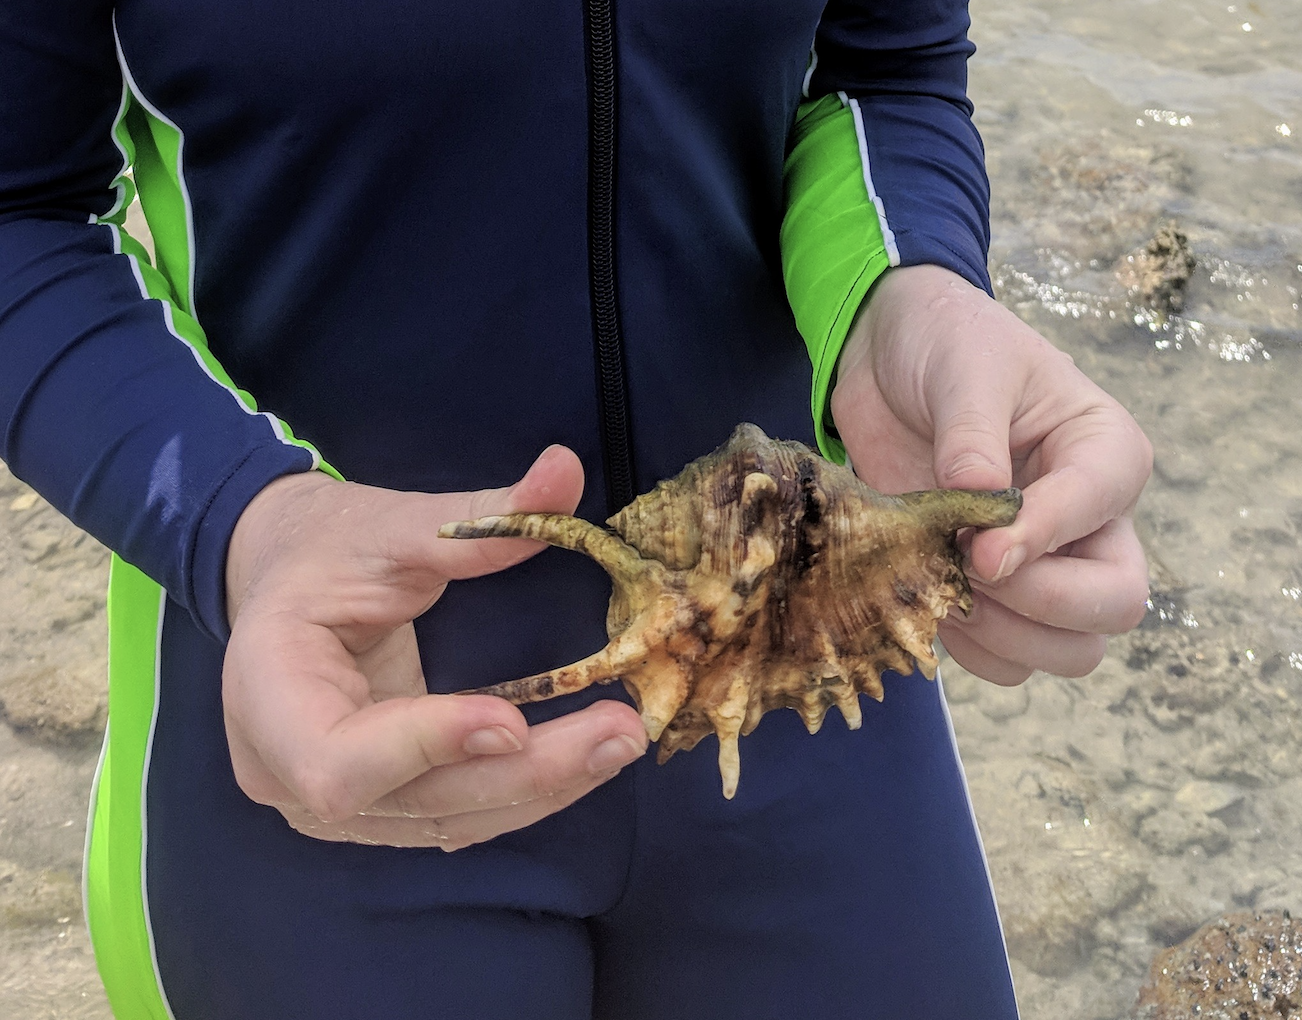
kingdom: Animalia
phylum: Mollusca
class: Gastropoda
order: Littorinimorpha
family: Strombidae
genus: Lambis
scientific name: Lambis lambis
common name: Common spider conch
